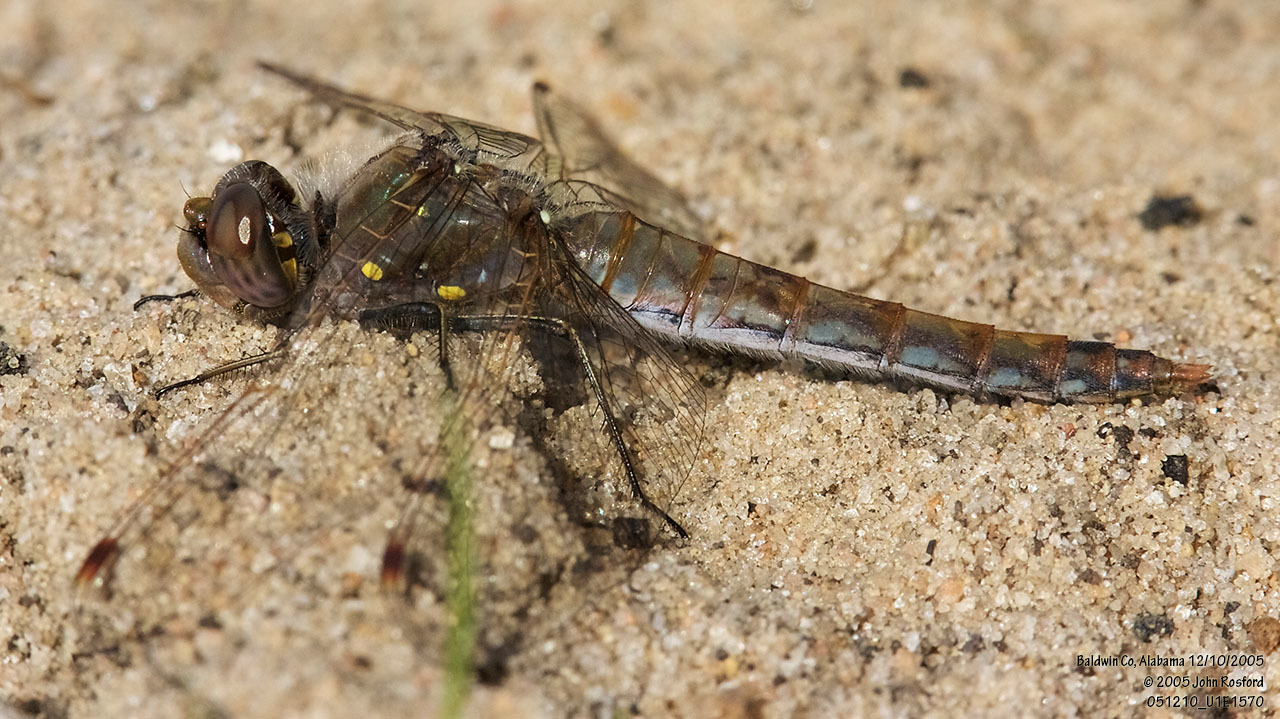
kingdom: Animalia
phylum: Arthropoda
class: Insecta
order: Odonata
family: Libellulidae
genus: Sympetrum
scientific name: Sympetrum corruptum
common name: Variegated meadowhawk
